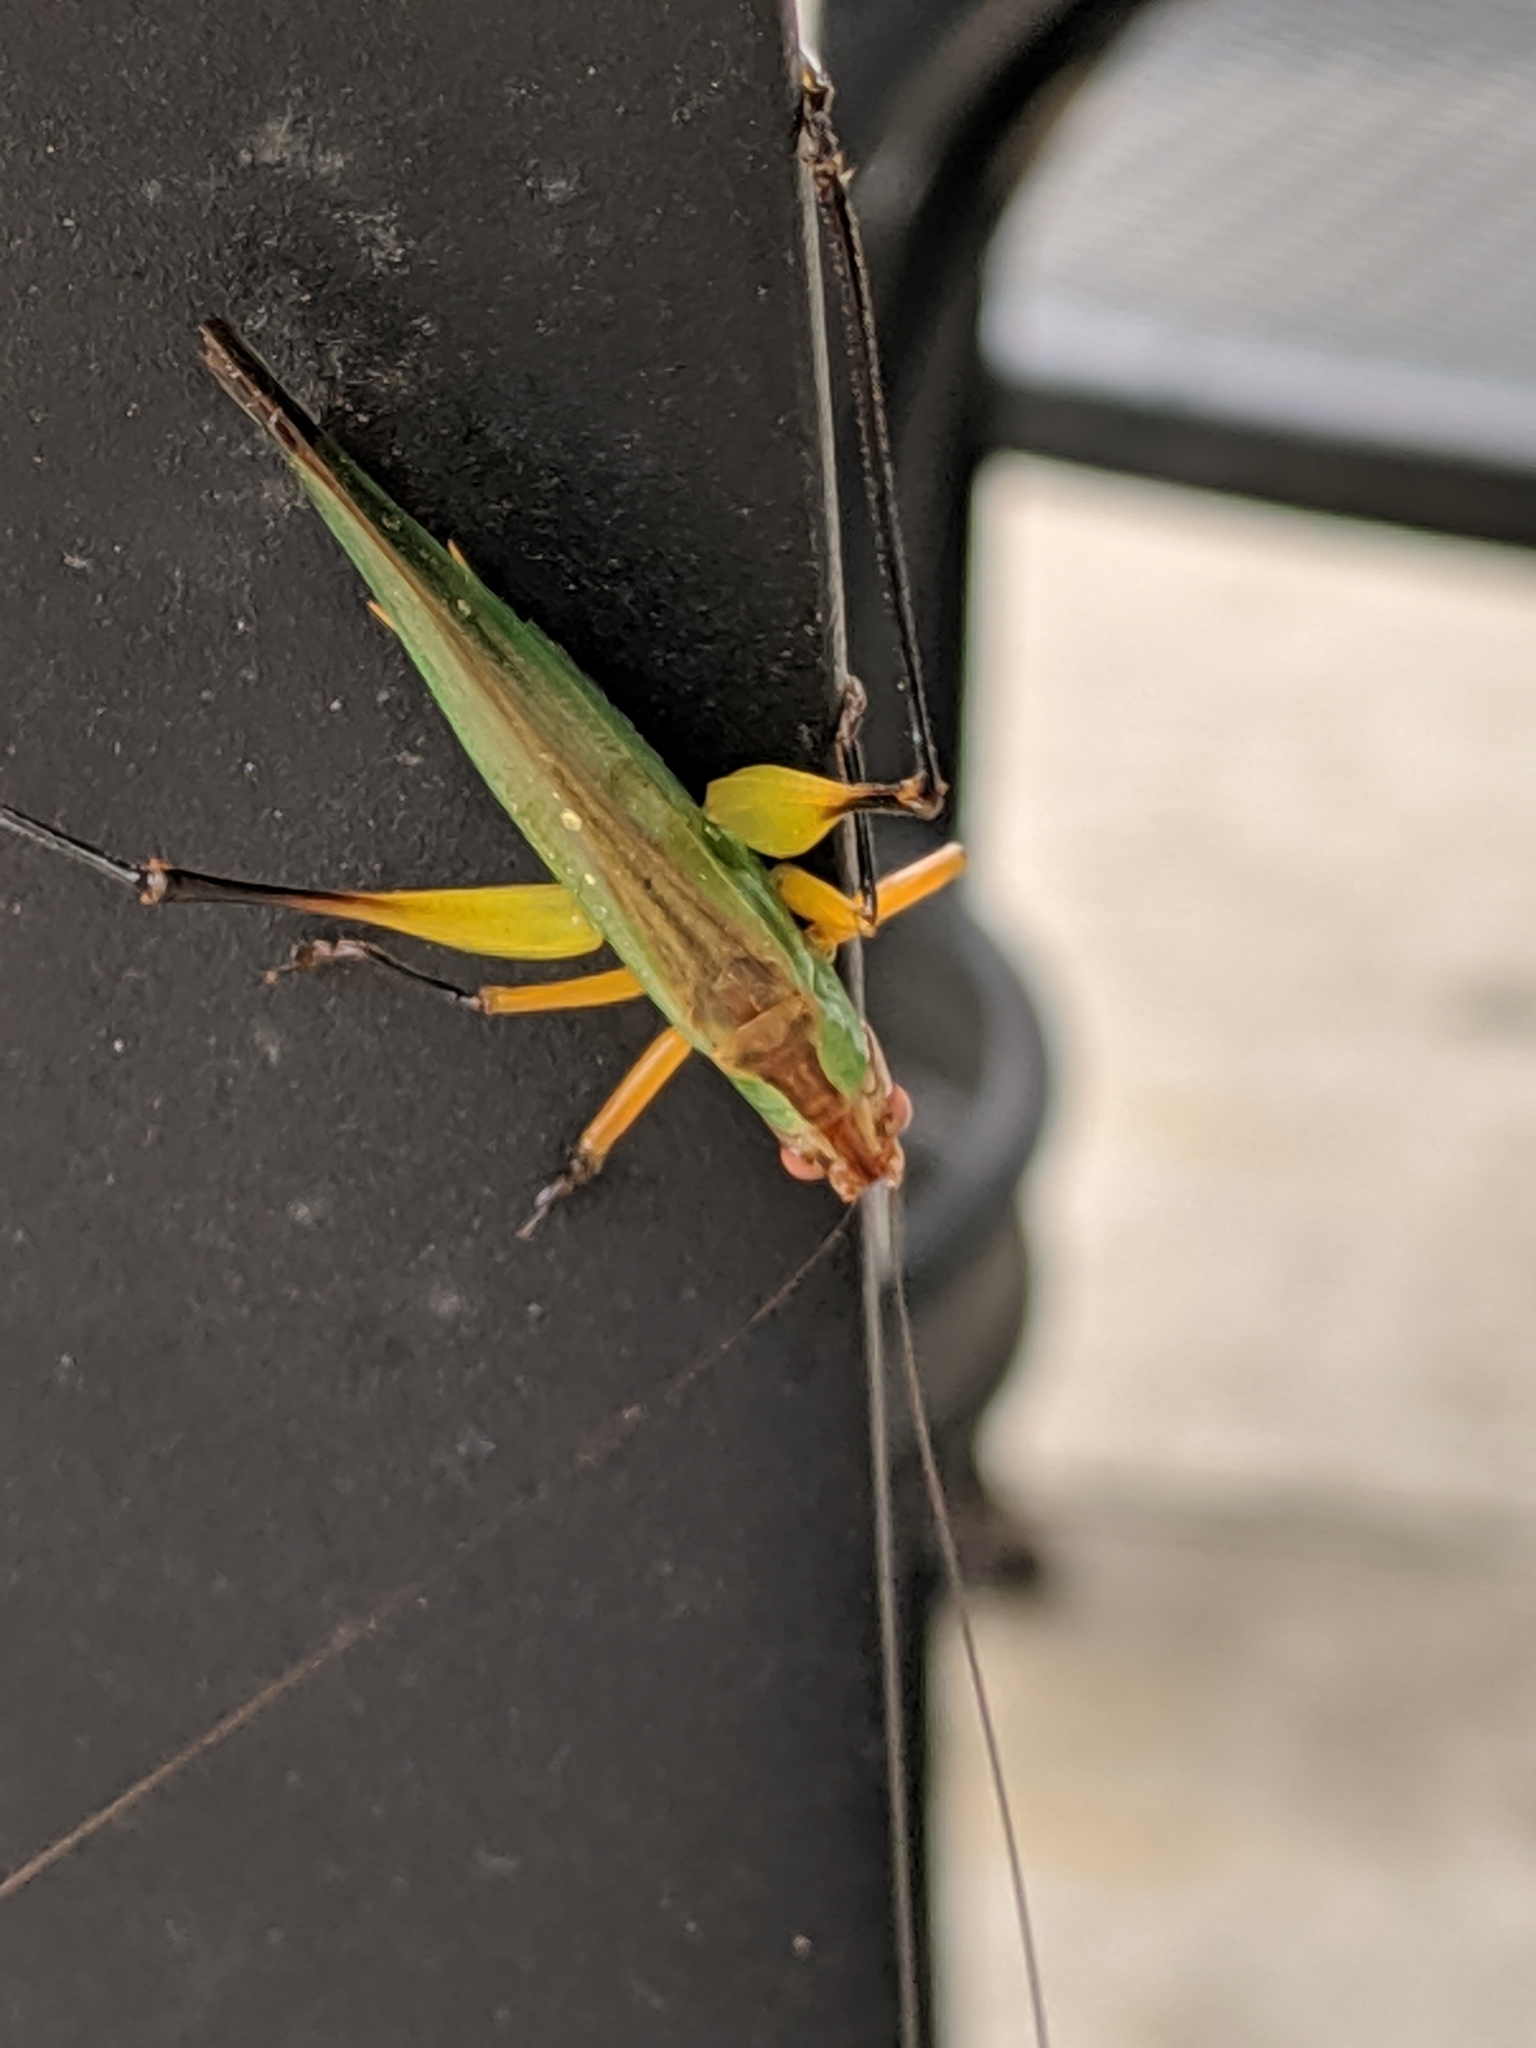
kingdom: Animalia
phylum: Arthropoda
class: Insecta
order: Orthoptera
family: Tettigoniidae
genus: Orchelimum
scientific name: Orchelimum nigripes
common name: Black-legged meadow katydid
